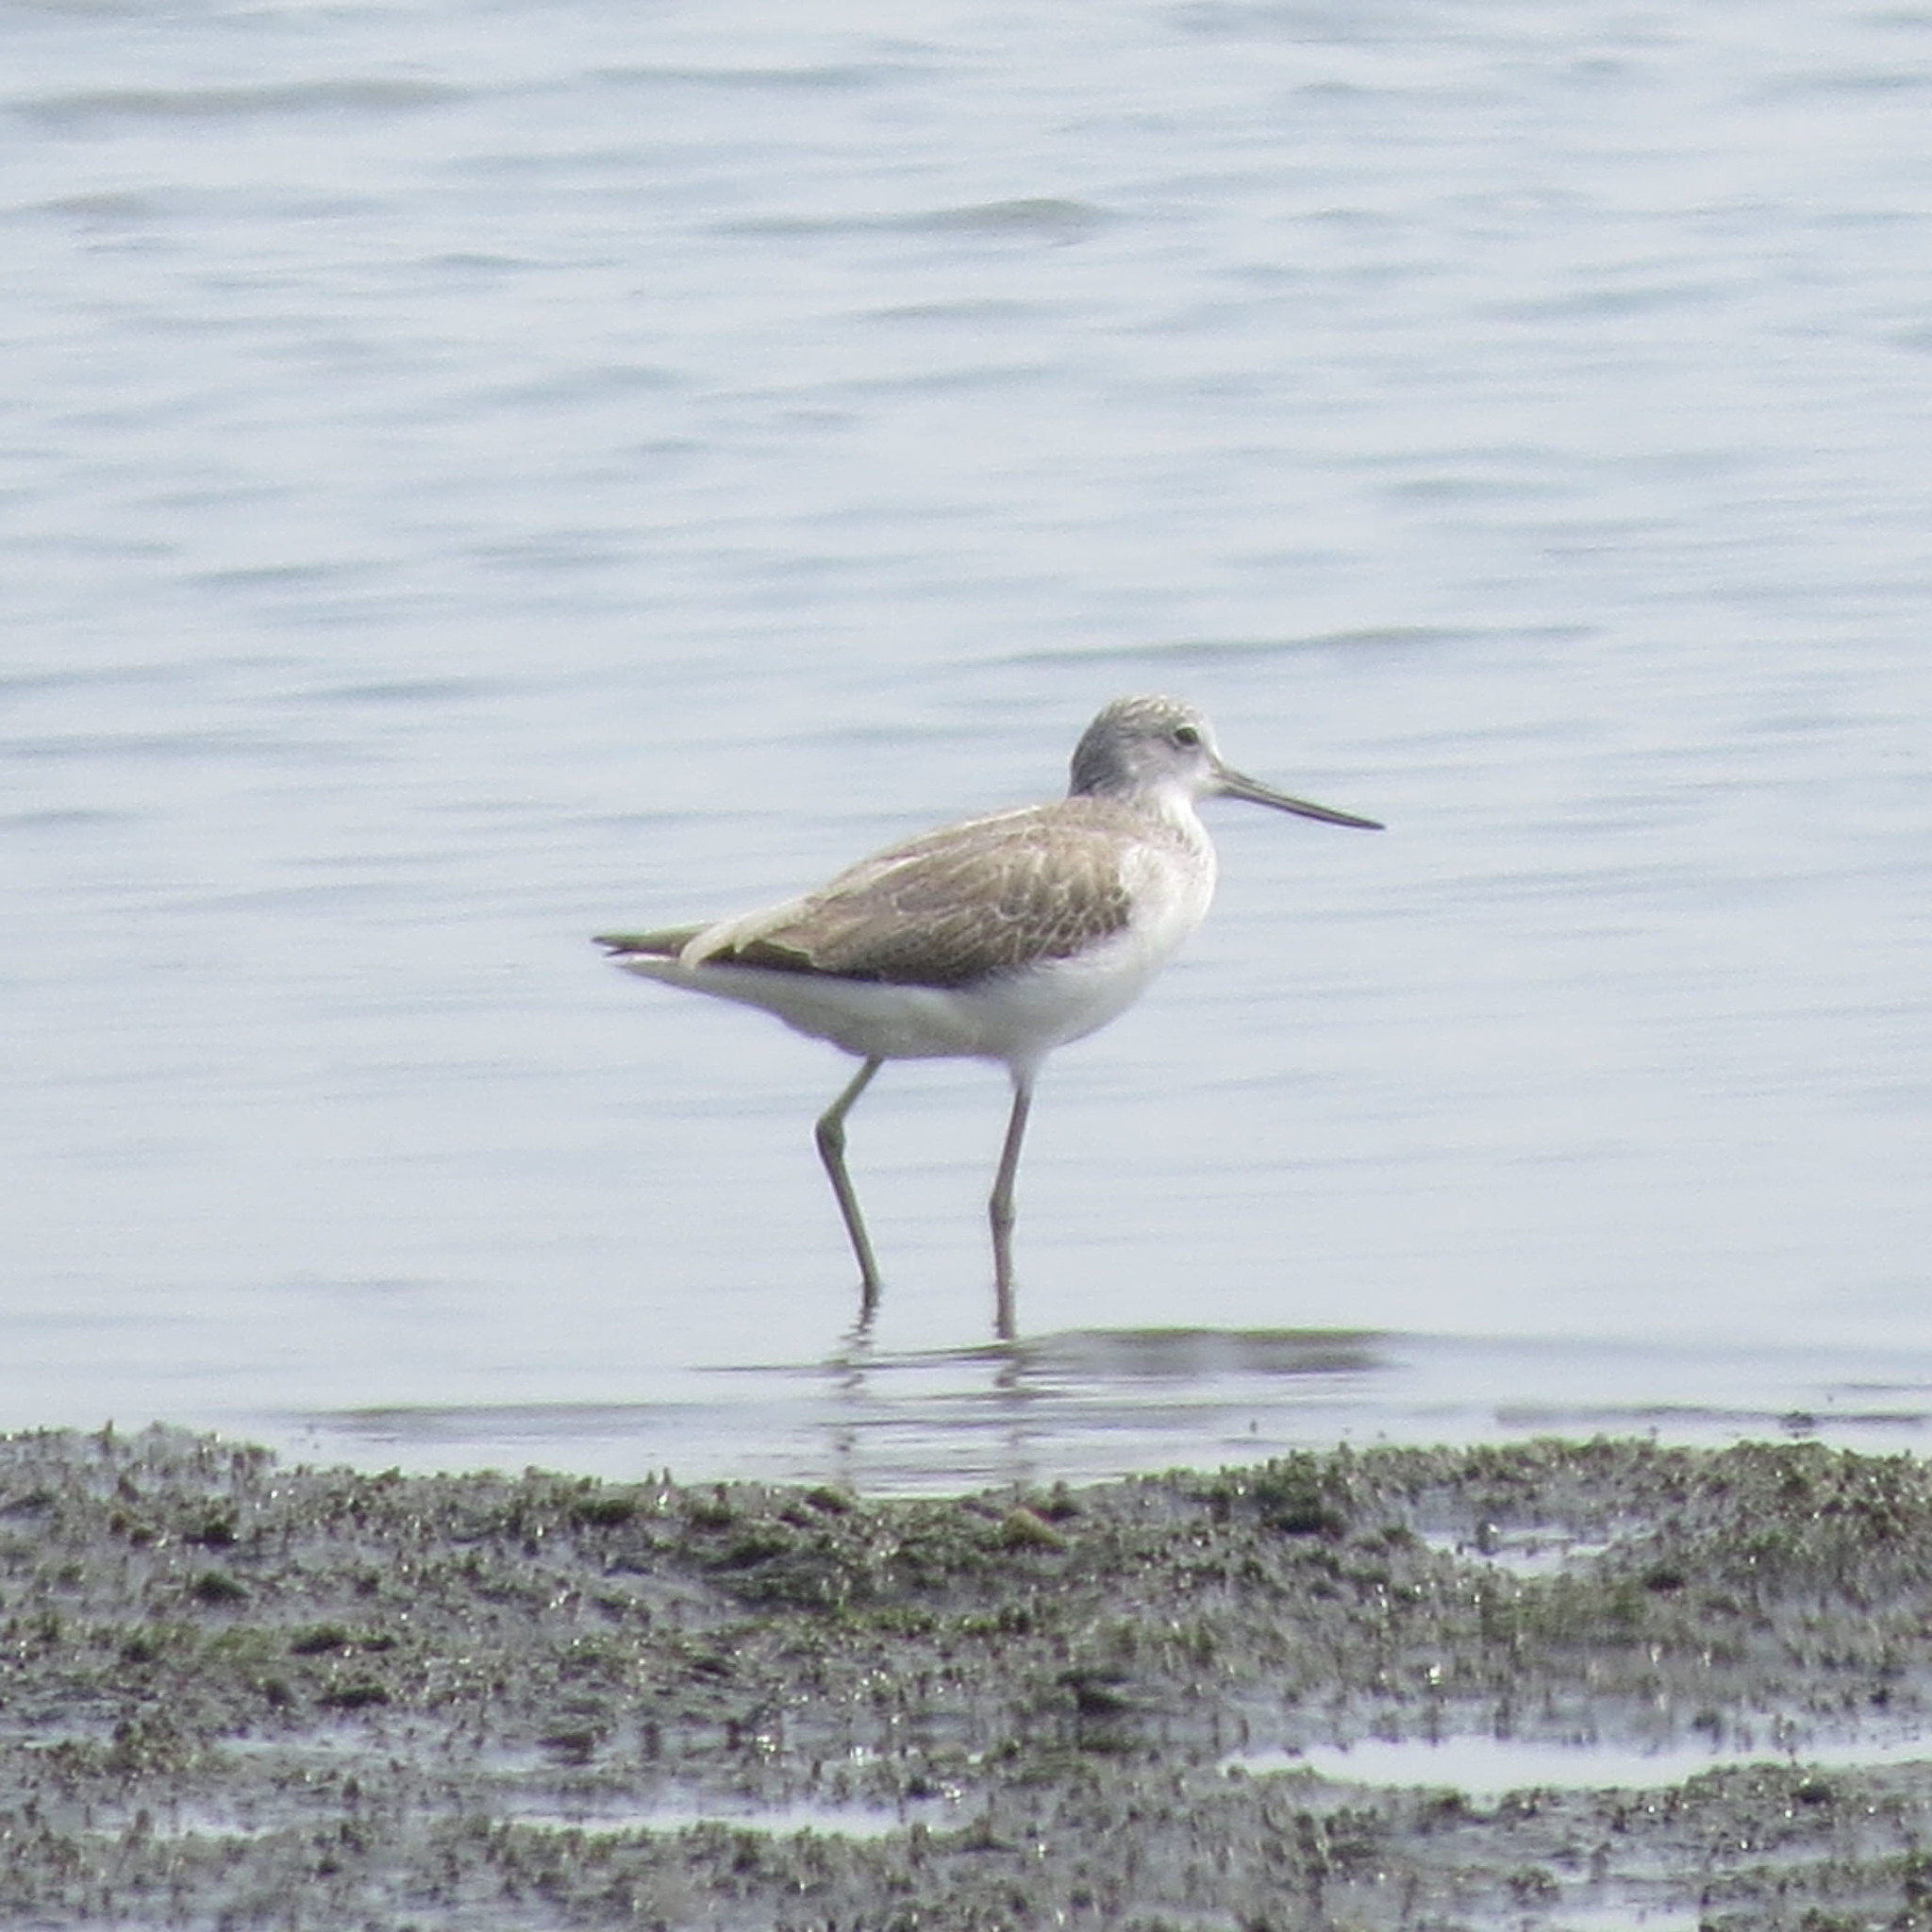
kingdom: Animalia
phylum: Chordata
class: Aves
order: Charadriiformes
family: Scolopacidae
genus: Tringa
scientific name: Tringa nebularia
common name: Common greenshank
